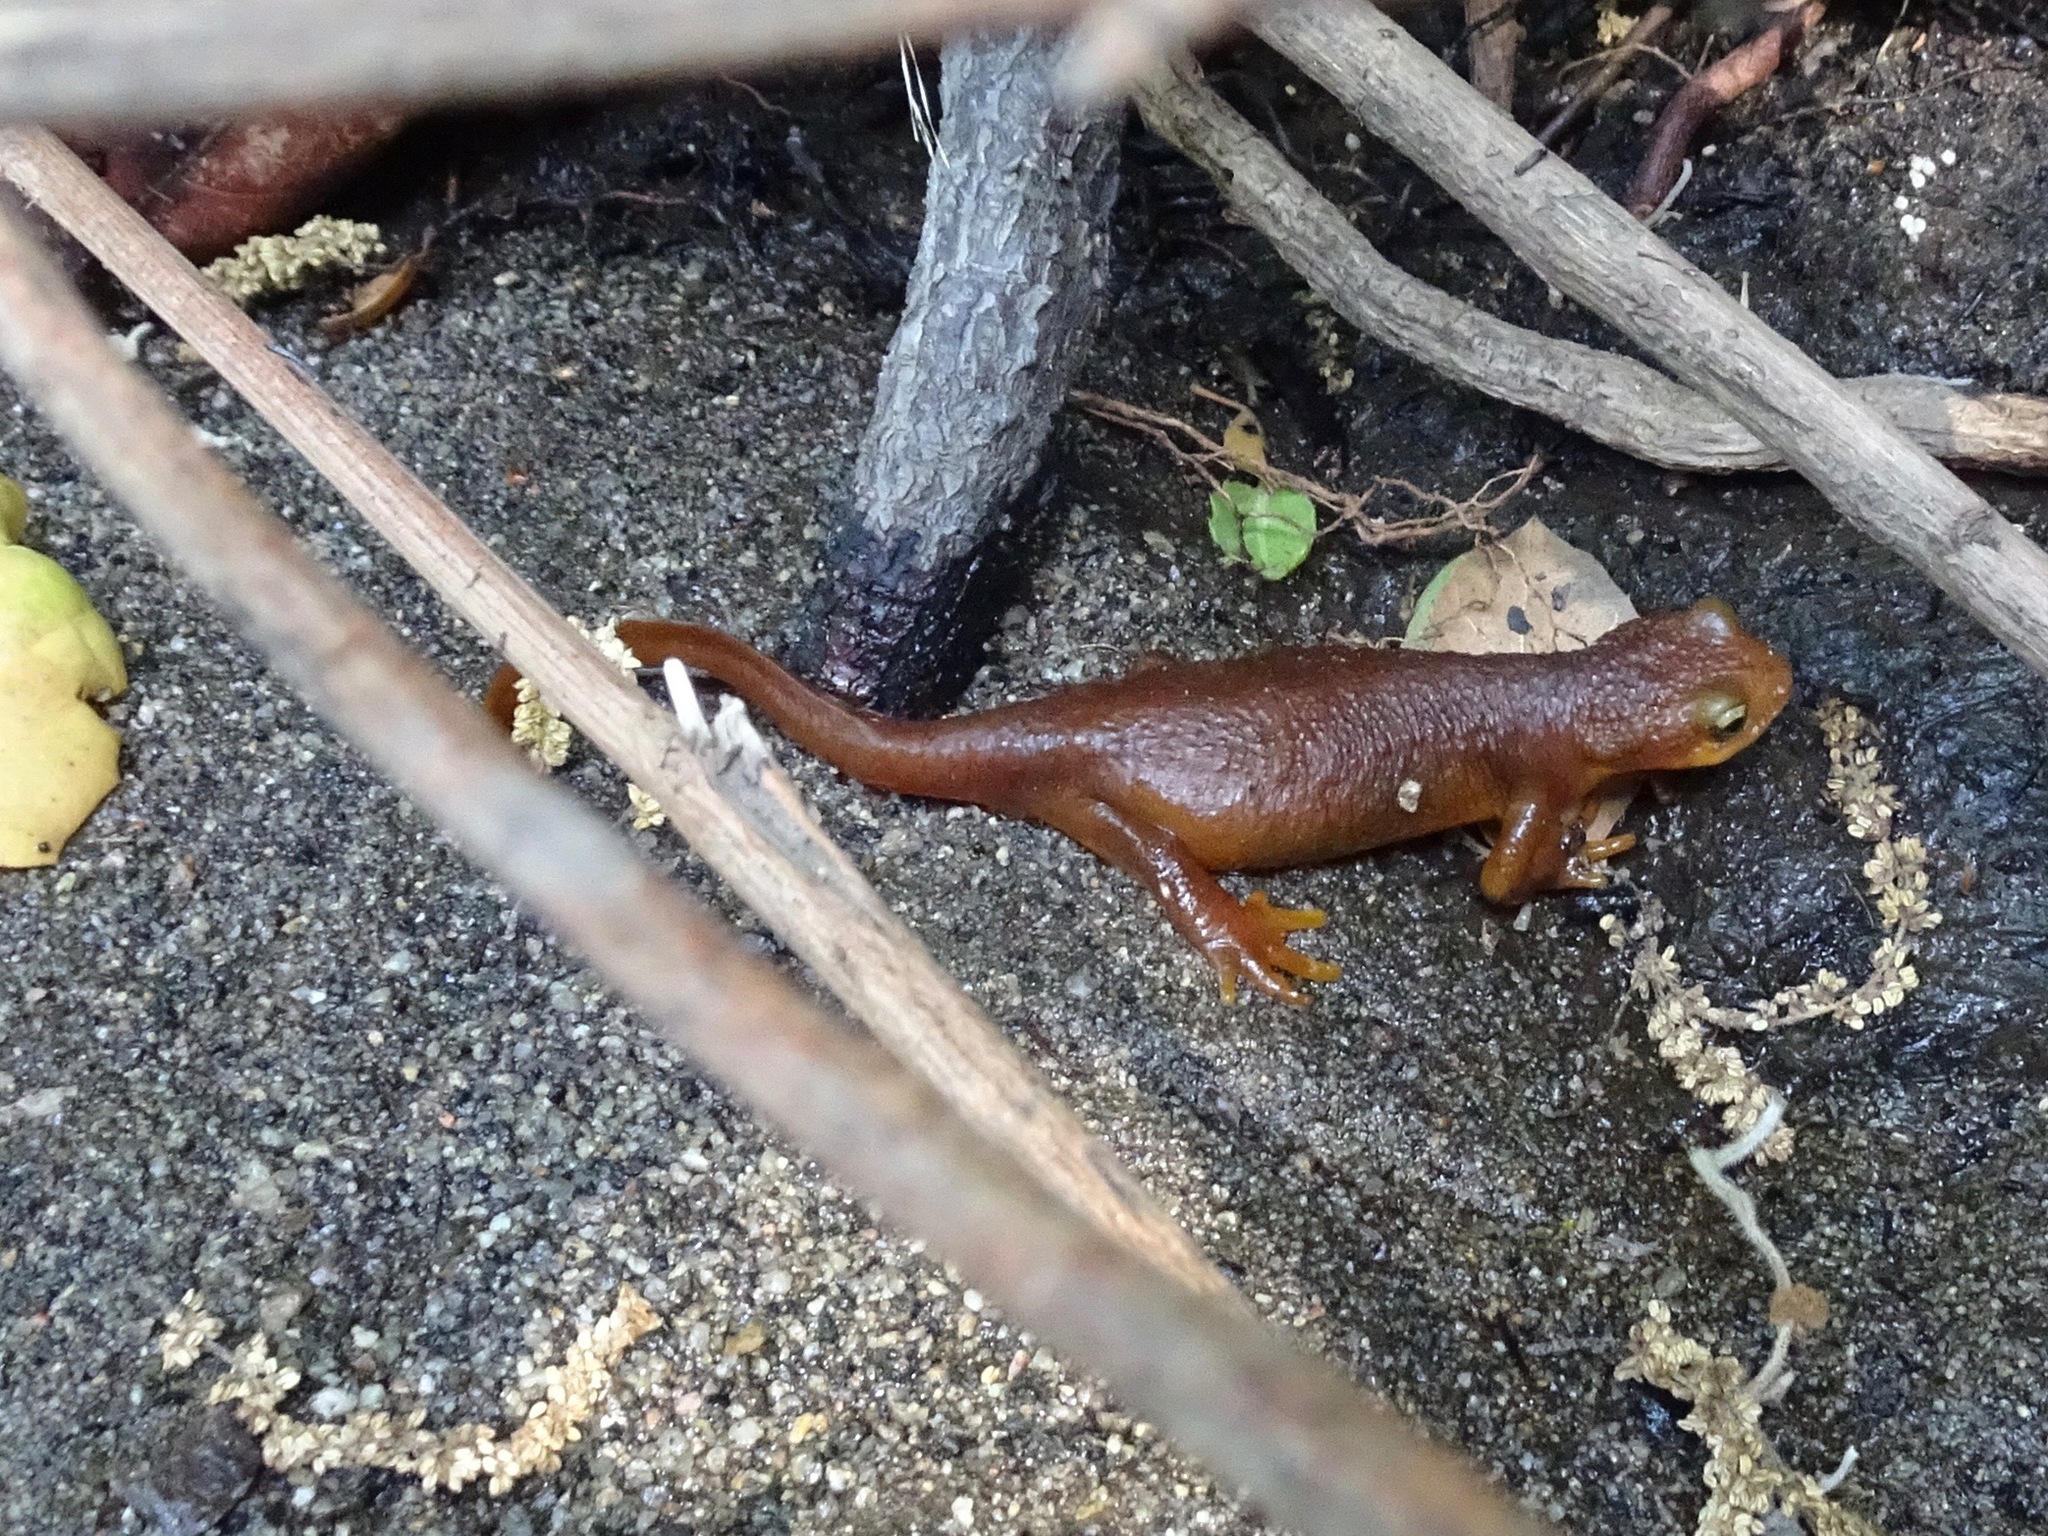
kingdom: Animalia
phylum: Chordata
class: Amphibia
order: Caudata
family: Salamandridae
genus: Taricha
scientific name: Taricha torosa
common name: California newt
